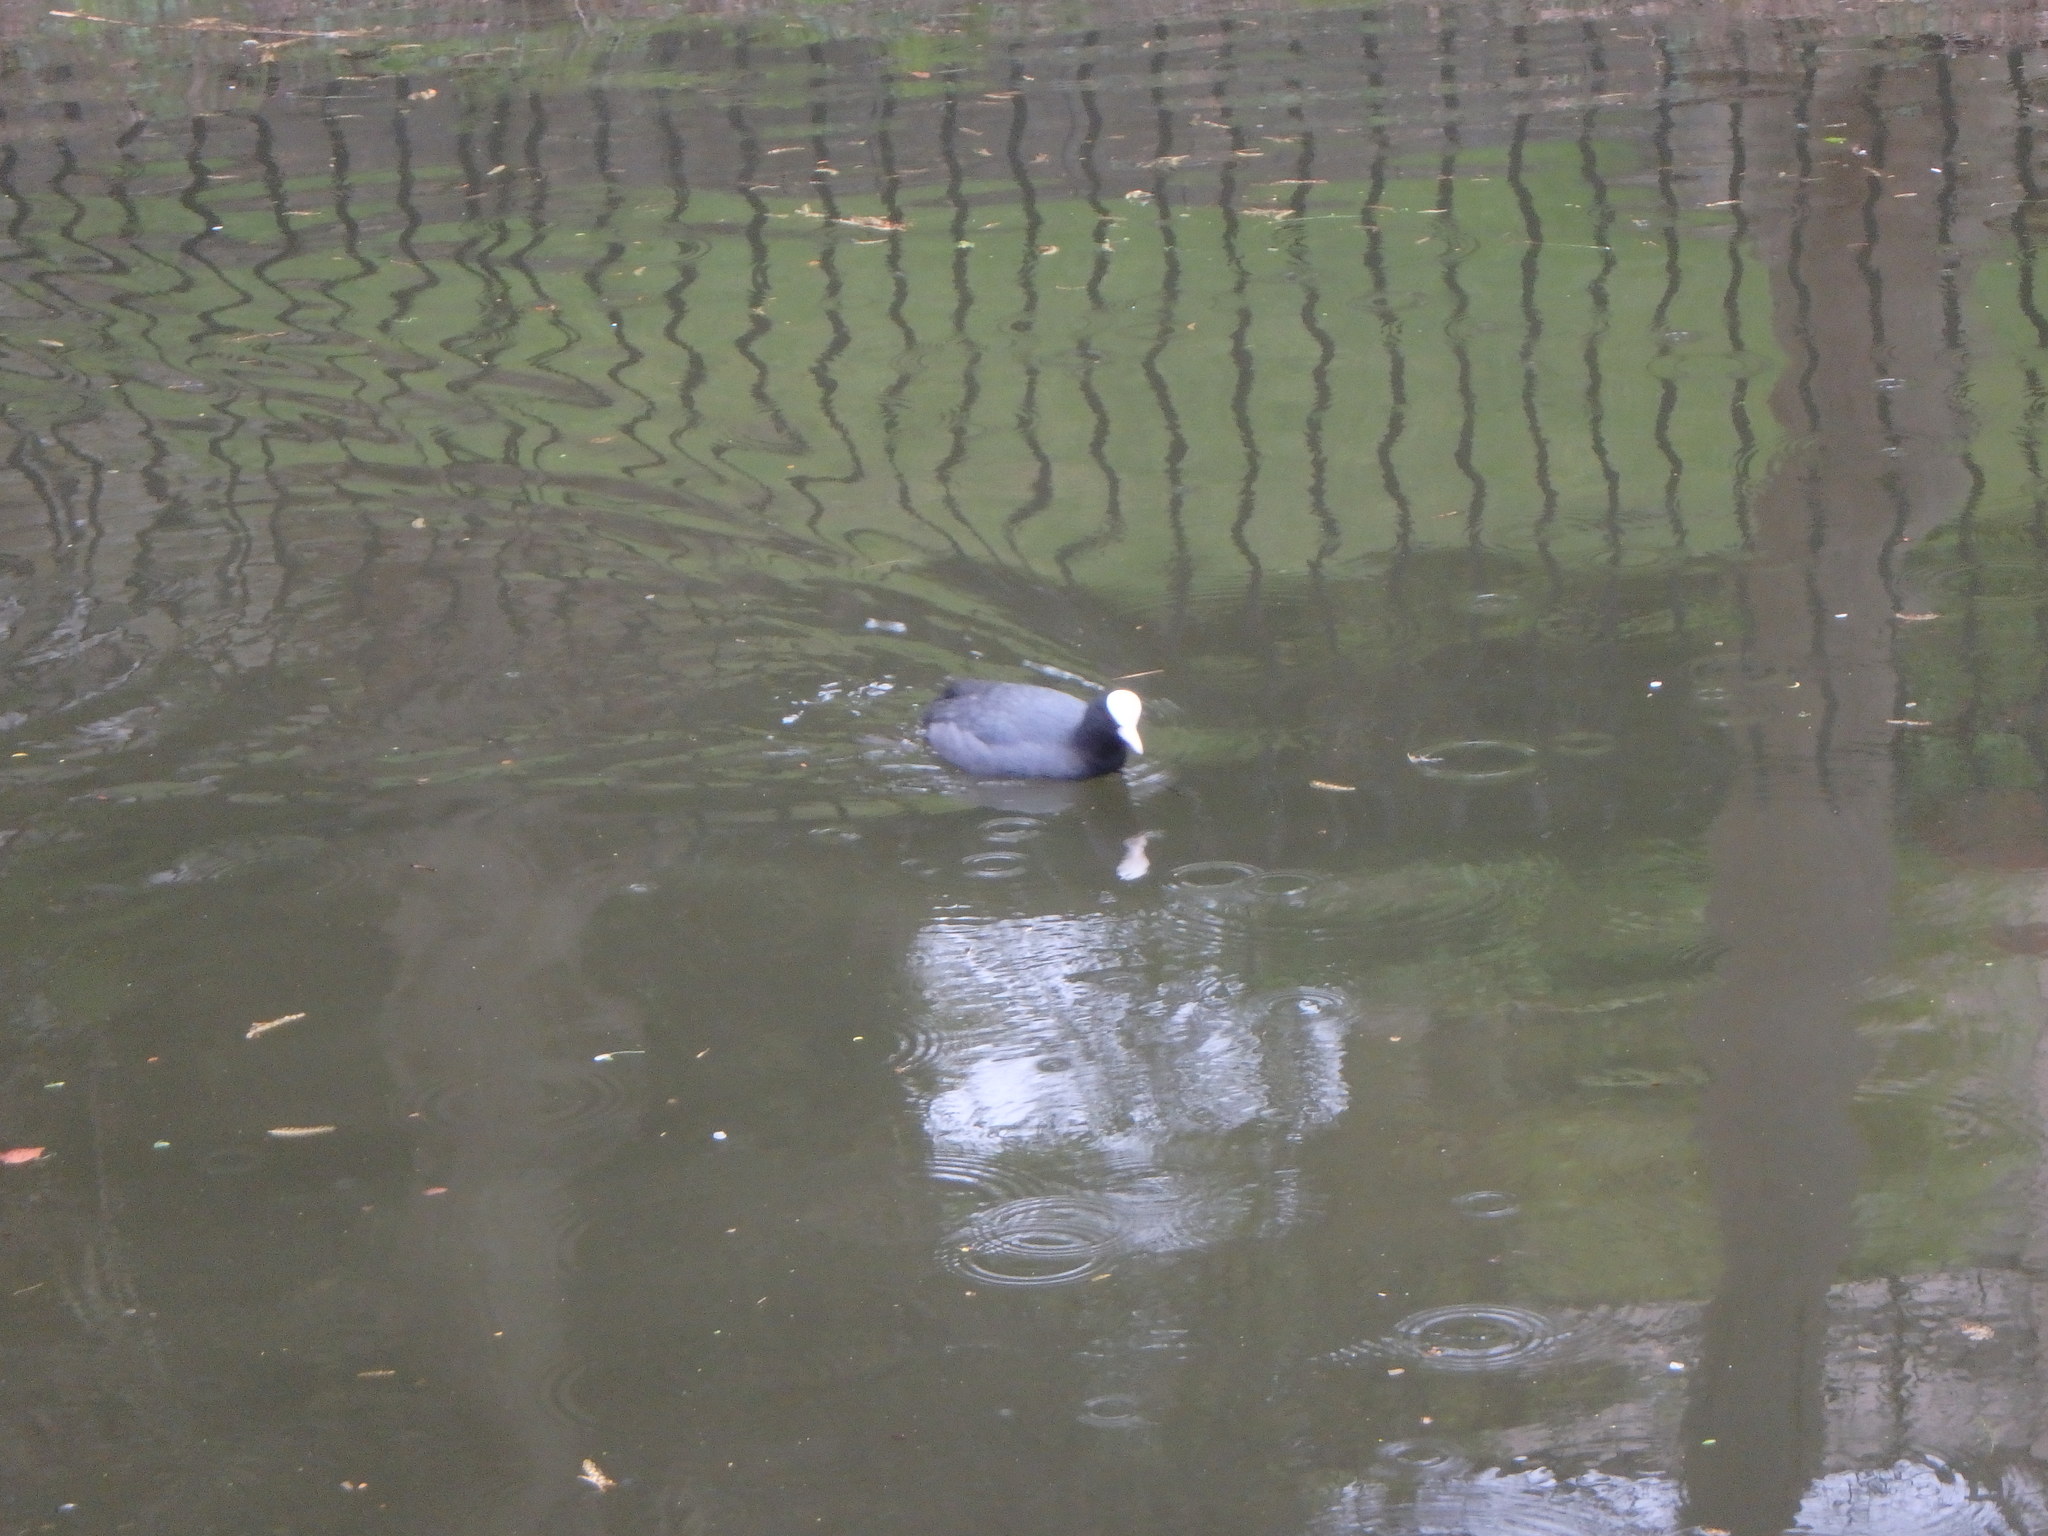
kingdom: Animalia
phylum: Chordata
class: Aves
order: Gruiformes
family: Rallidae
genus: Fulica
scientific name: Fulica atra
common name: Eurasian coot
